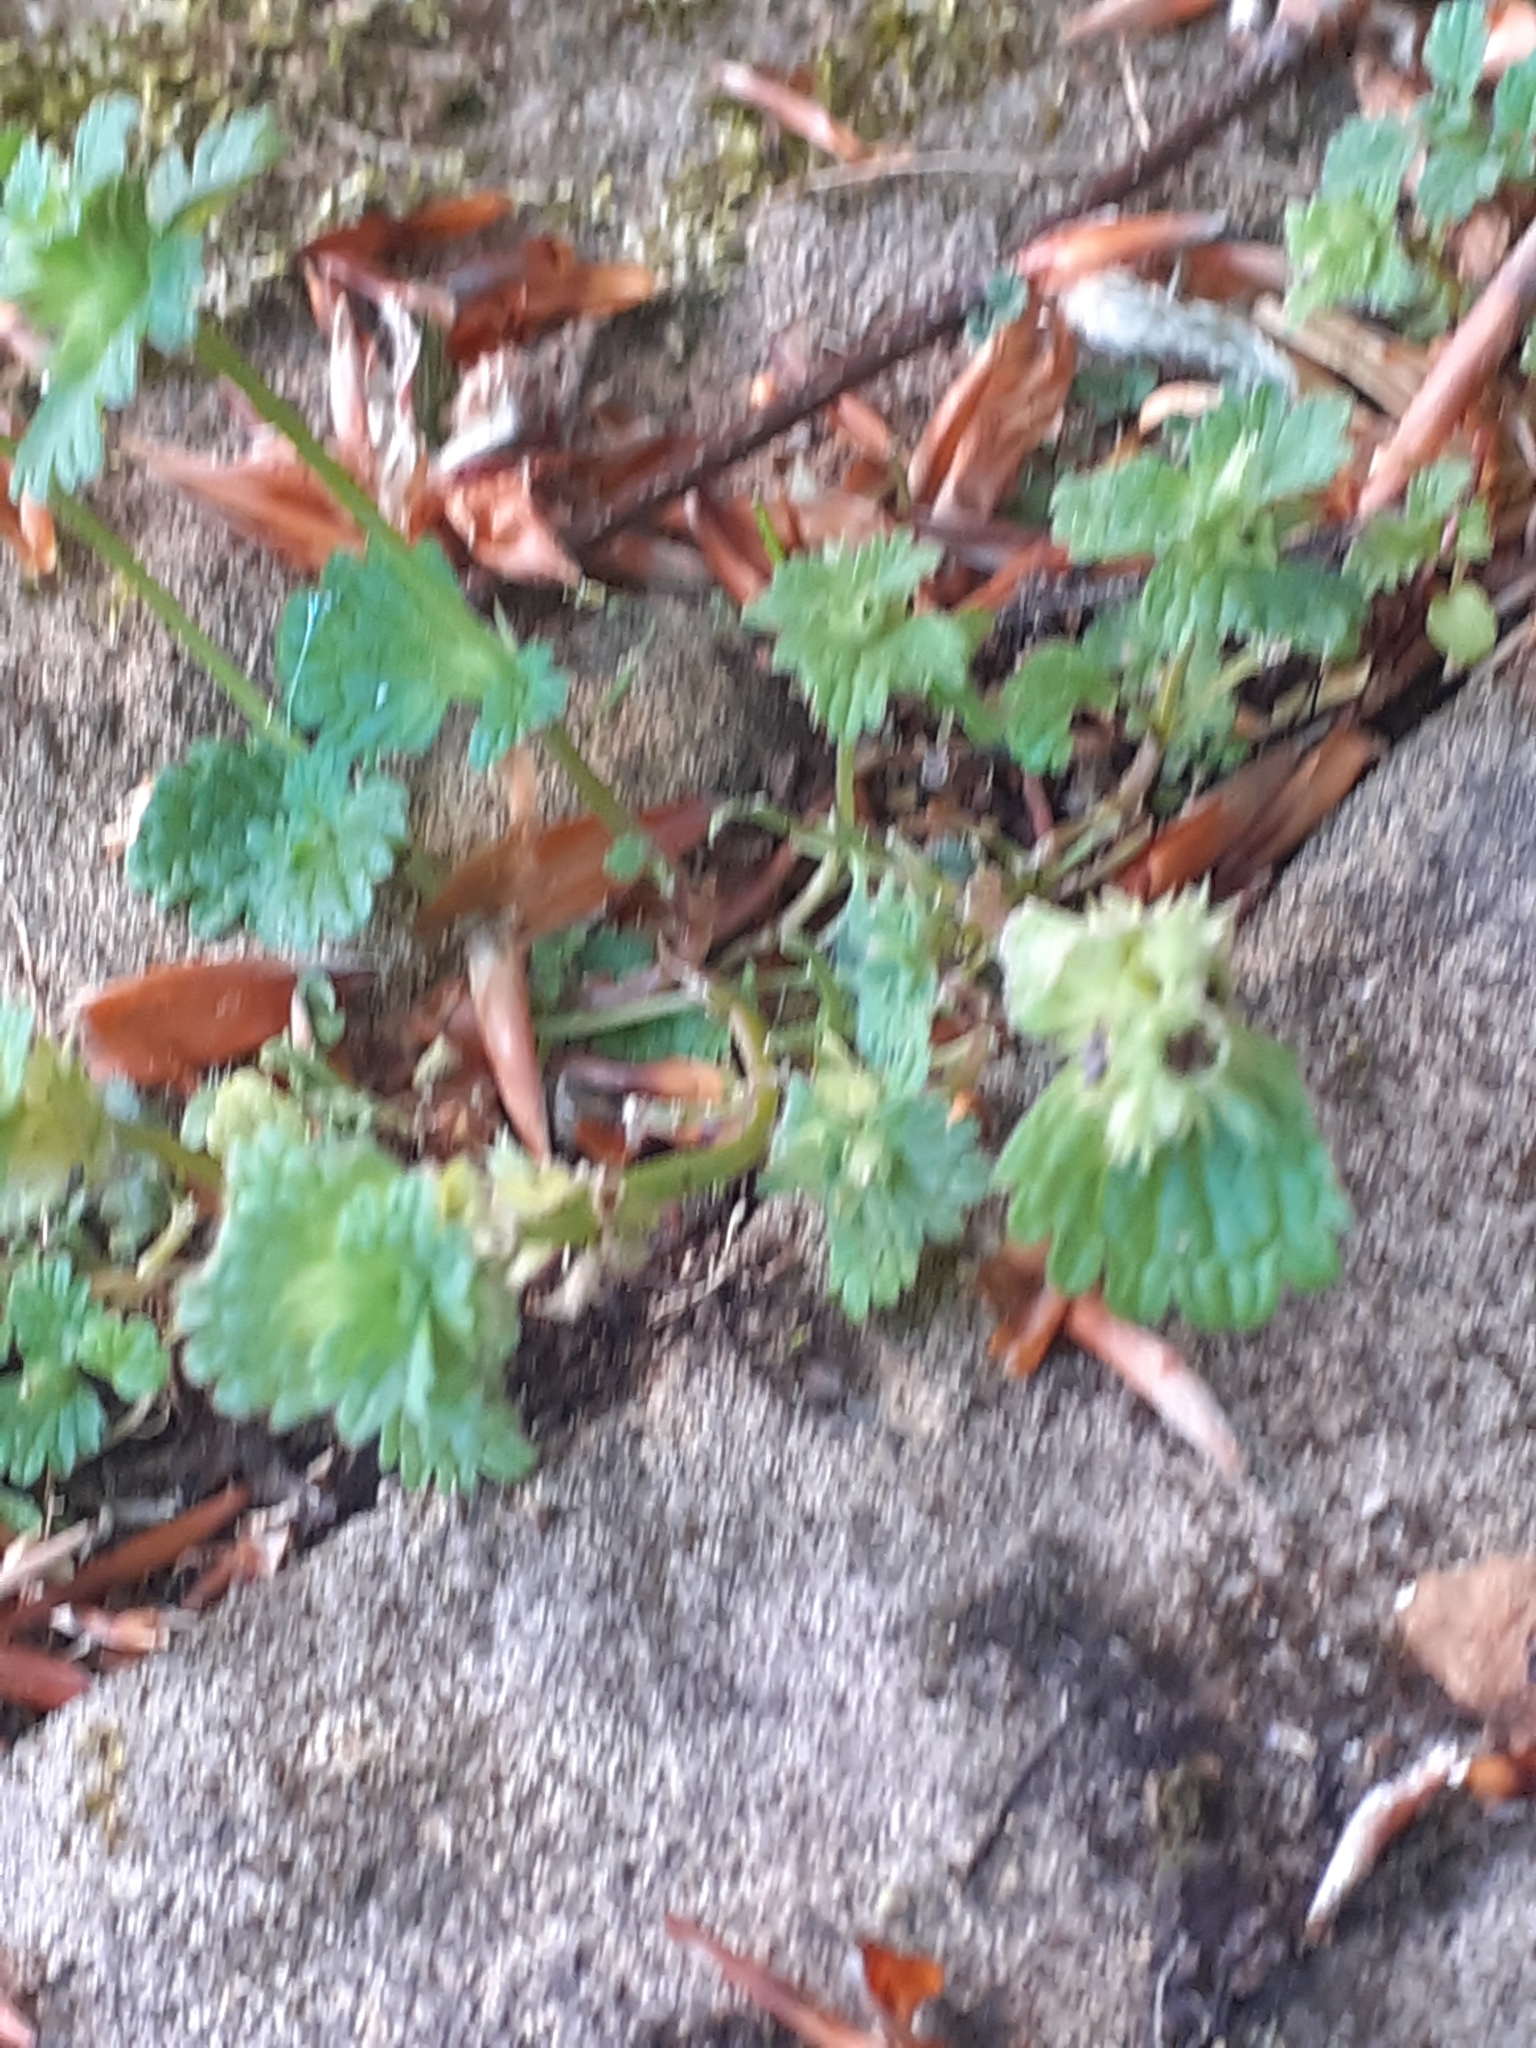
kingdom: Plantae
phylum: Tracheophyta
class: Magnoliopsida
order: Lamiales
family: Lamiaceae
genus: Lamium
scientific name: Lamium amplexicaule
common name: Henbit dead-nettle
